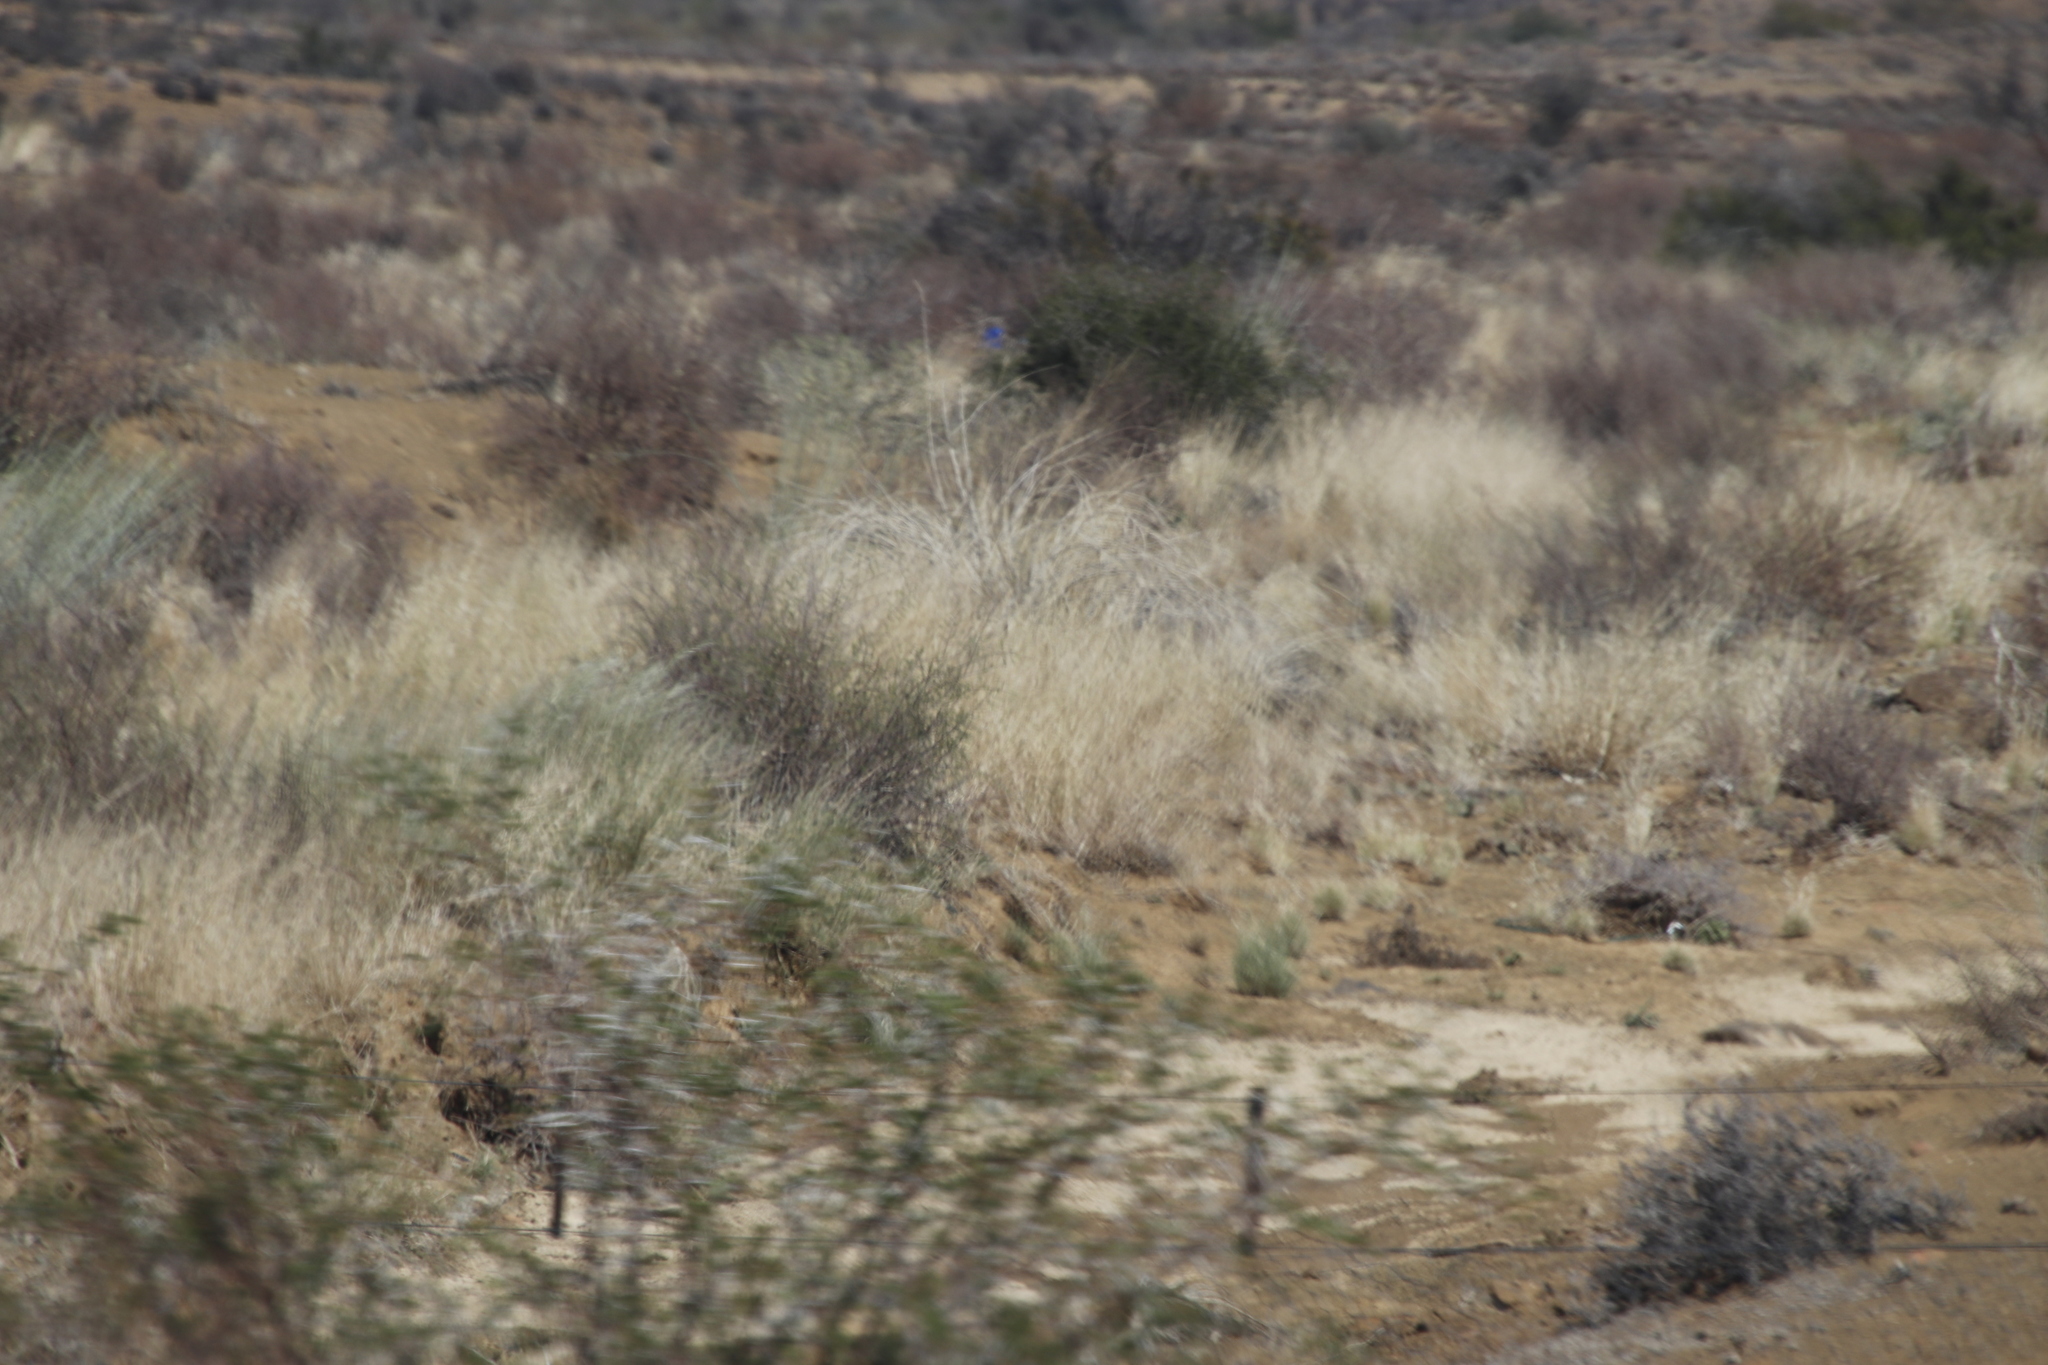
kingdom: Plantae
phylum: Tracheophyta
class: Magnoliopsida
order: Gentianales
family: Apocynaceae
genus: Gomphocarpus
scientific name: Gomphocarpus filiformis
